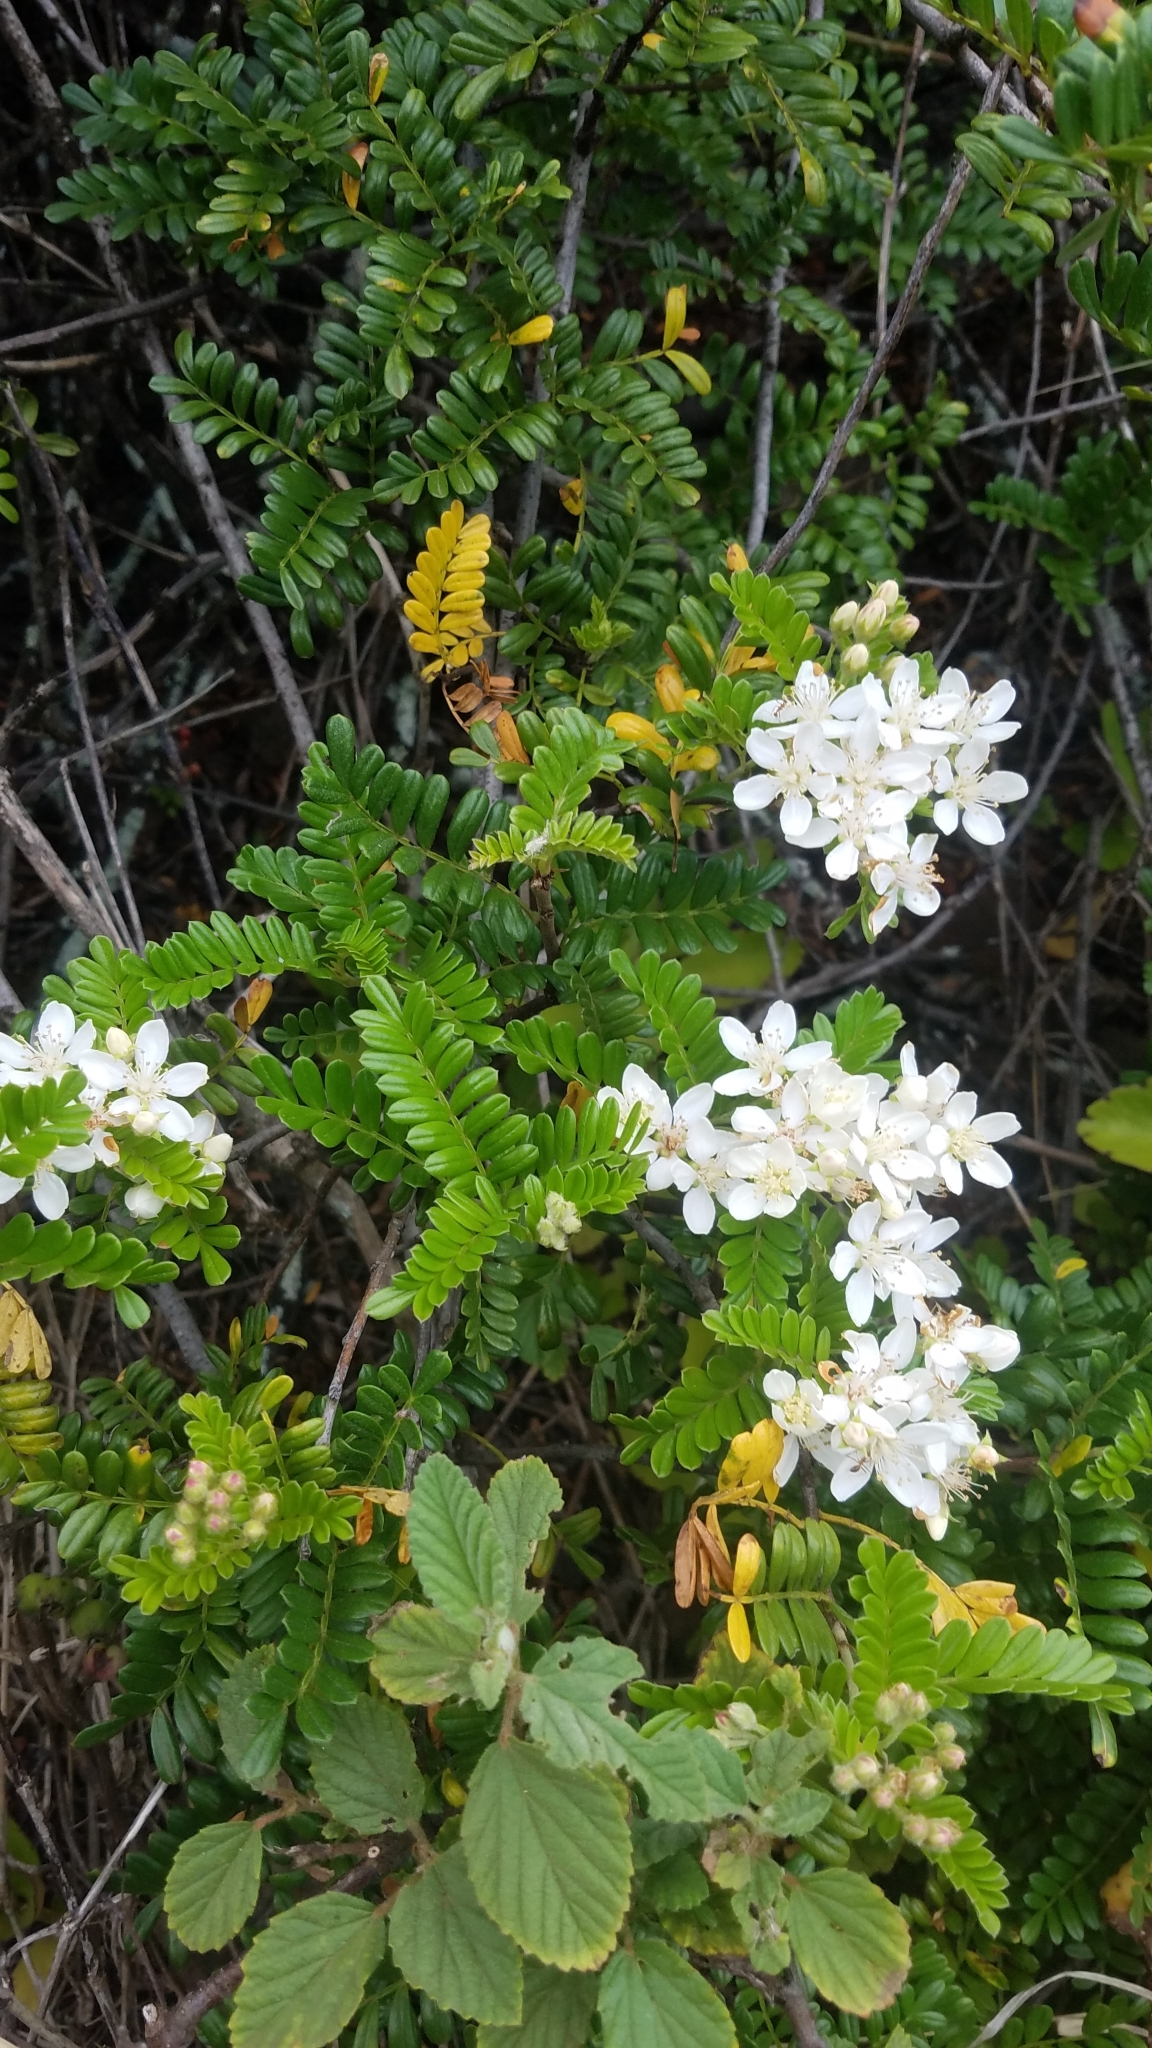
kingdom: Plantae
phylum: Tracheophyta
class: Magnoliopsida
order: Rosales
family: Rosaceae
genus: Osteomeles
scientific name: Osteomeles anthyllidifolia
